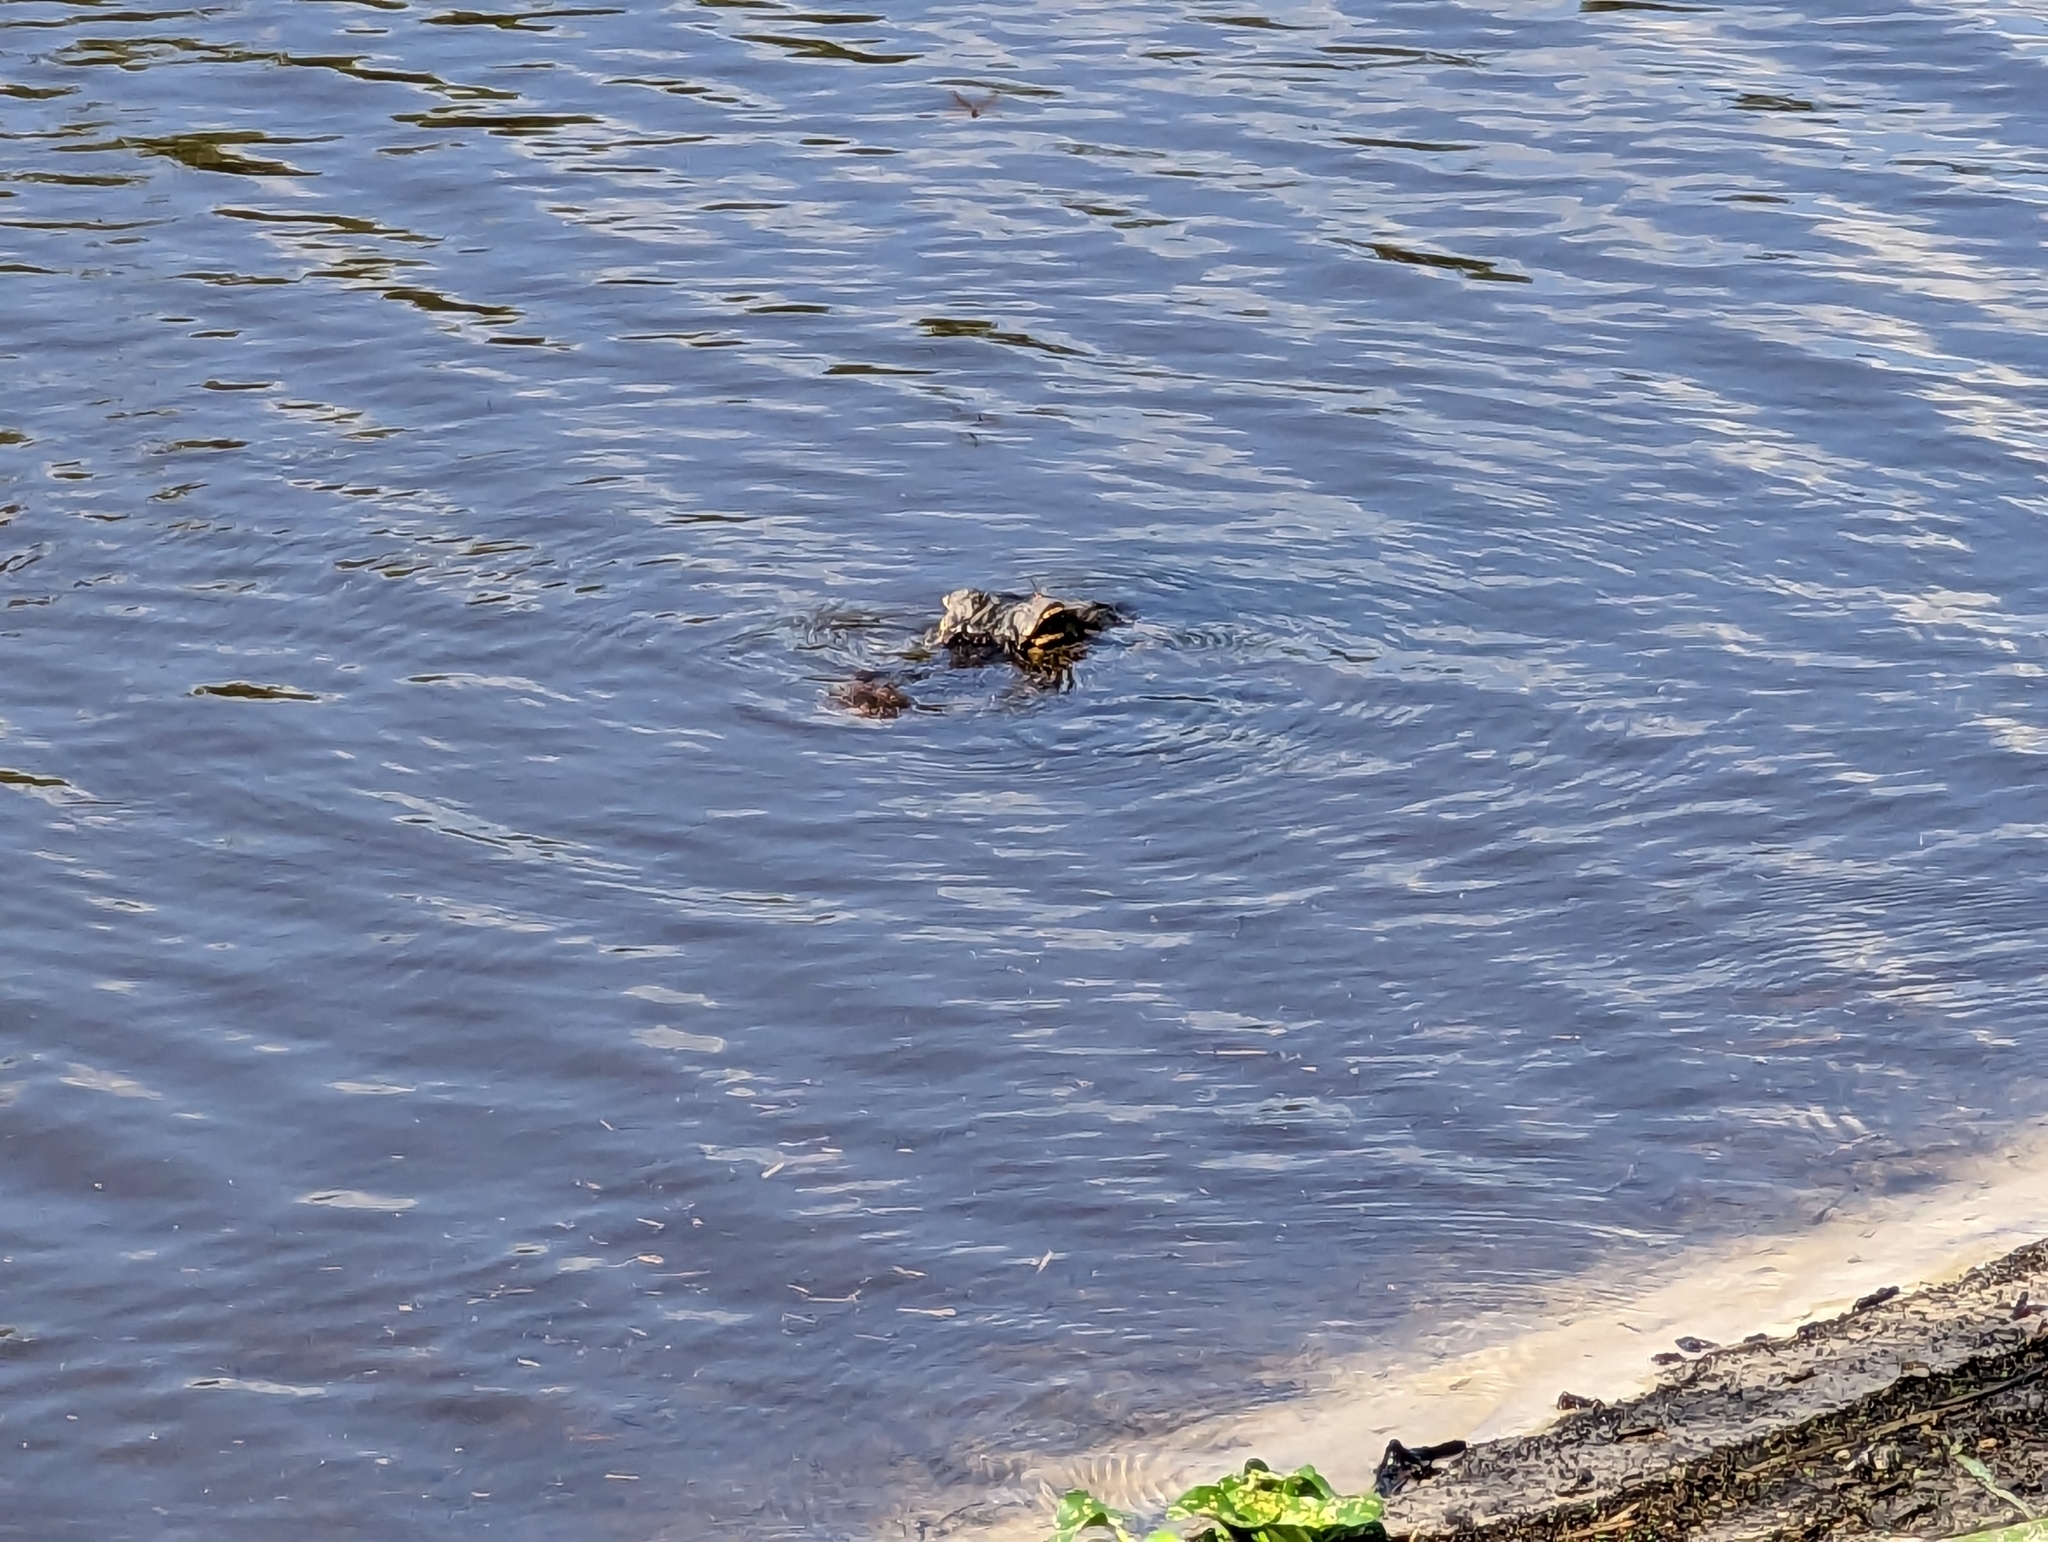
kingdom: Animalia
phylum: Chordata
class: Crocodylia
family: Alligatoridae
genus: Alligator
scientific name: Alligator mississippiensis
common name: American alligator
